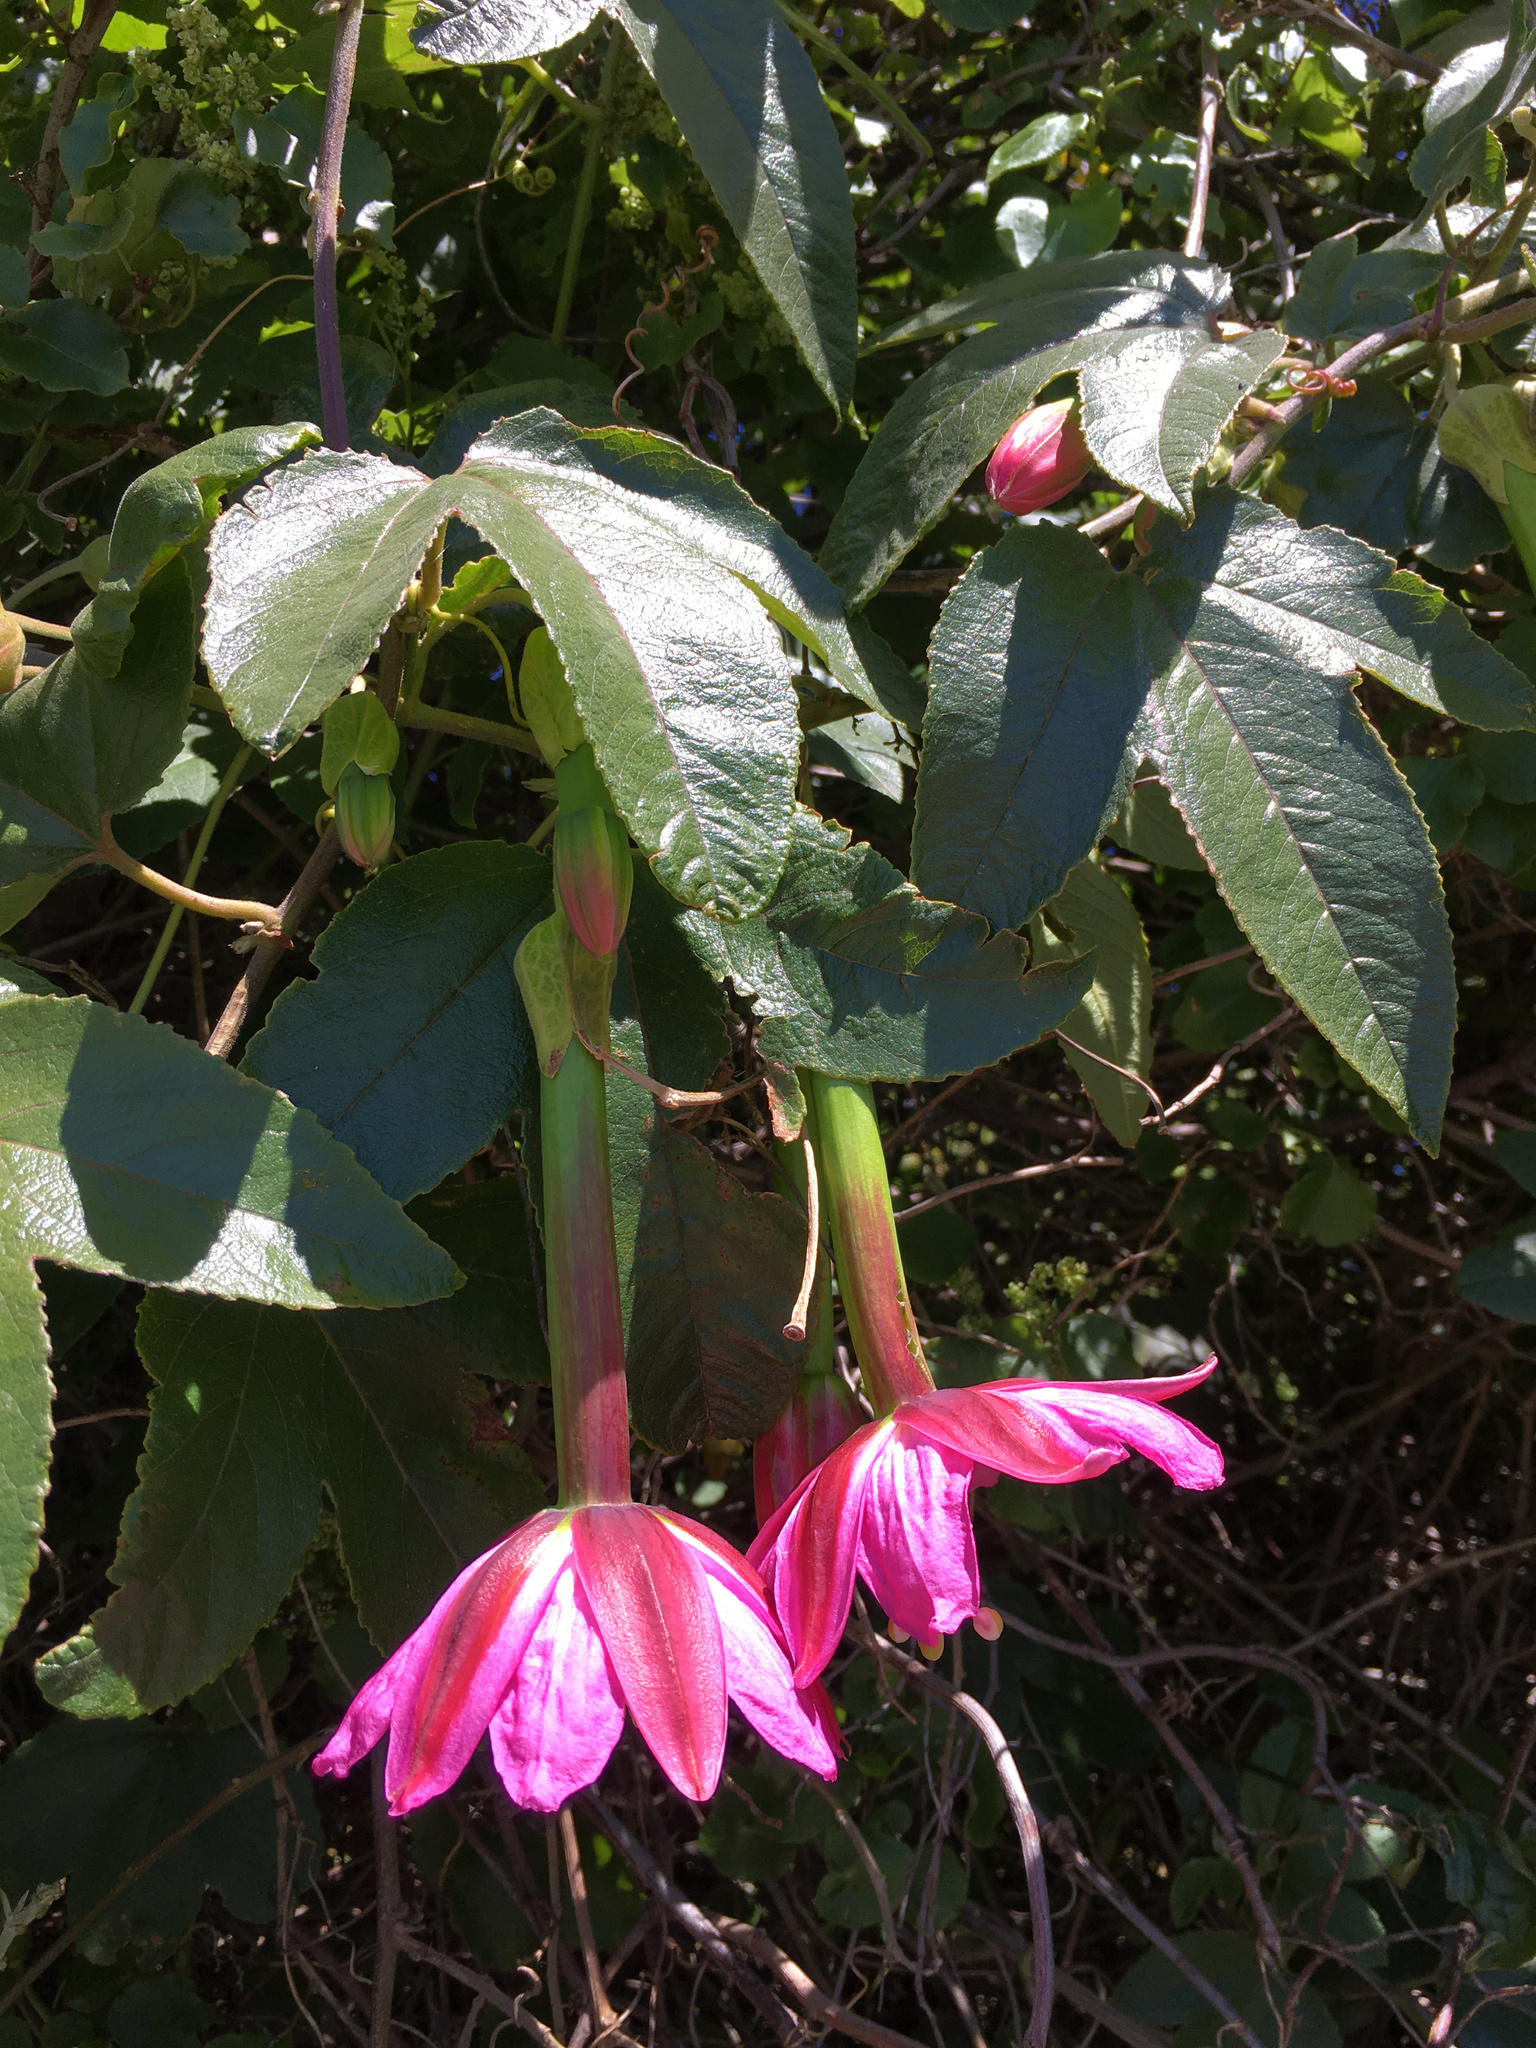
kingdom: Plantae
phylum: Tracheophyta
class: Magnoliopsida
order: Malpighiales
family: Passifloraceae
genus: Passiflora
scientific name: Passiflora tripartita
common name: Banana poka
